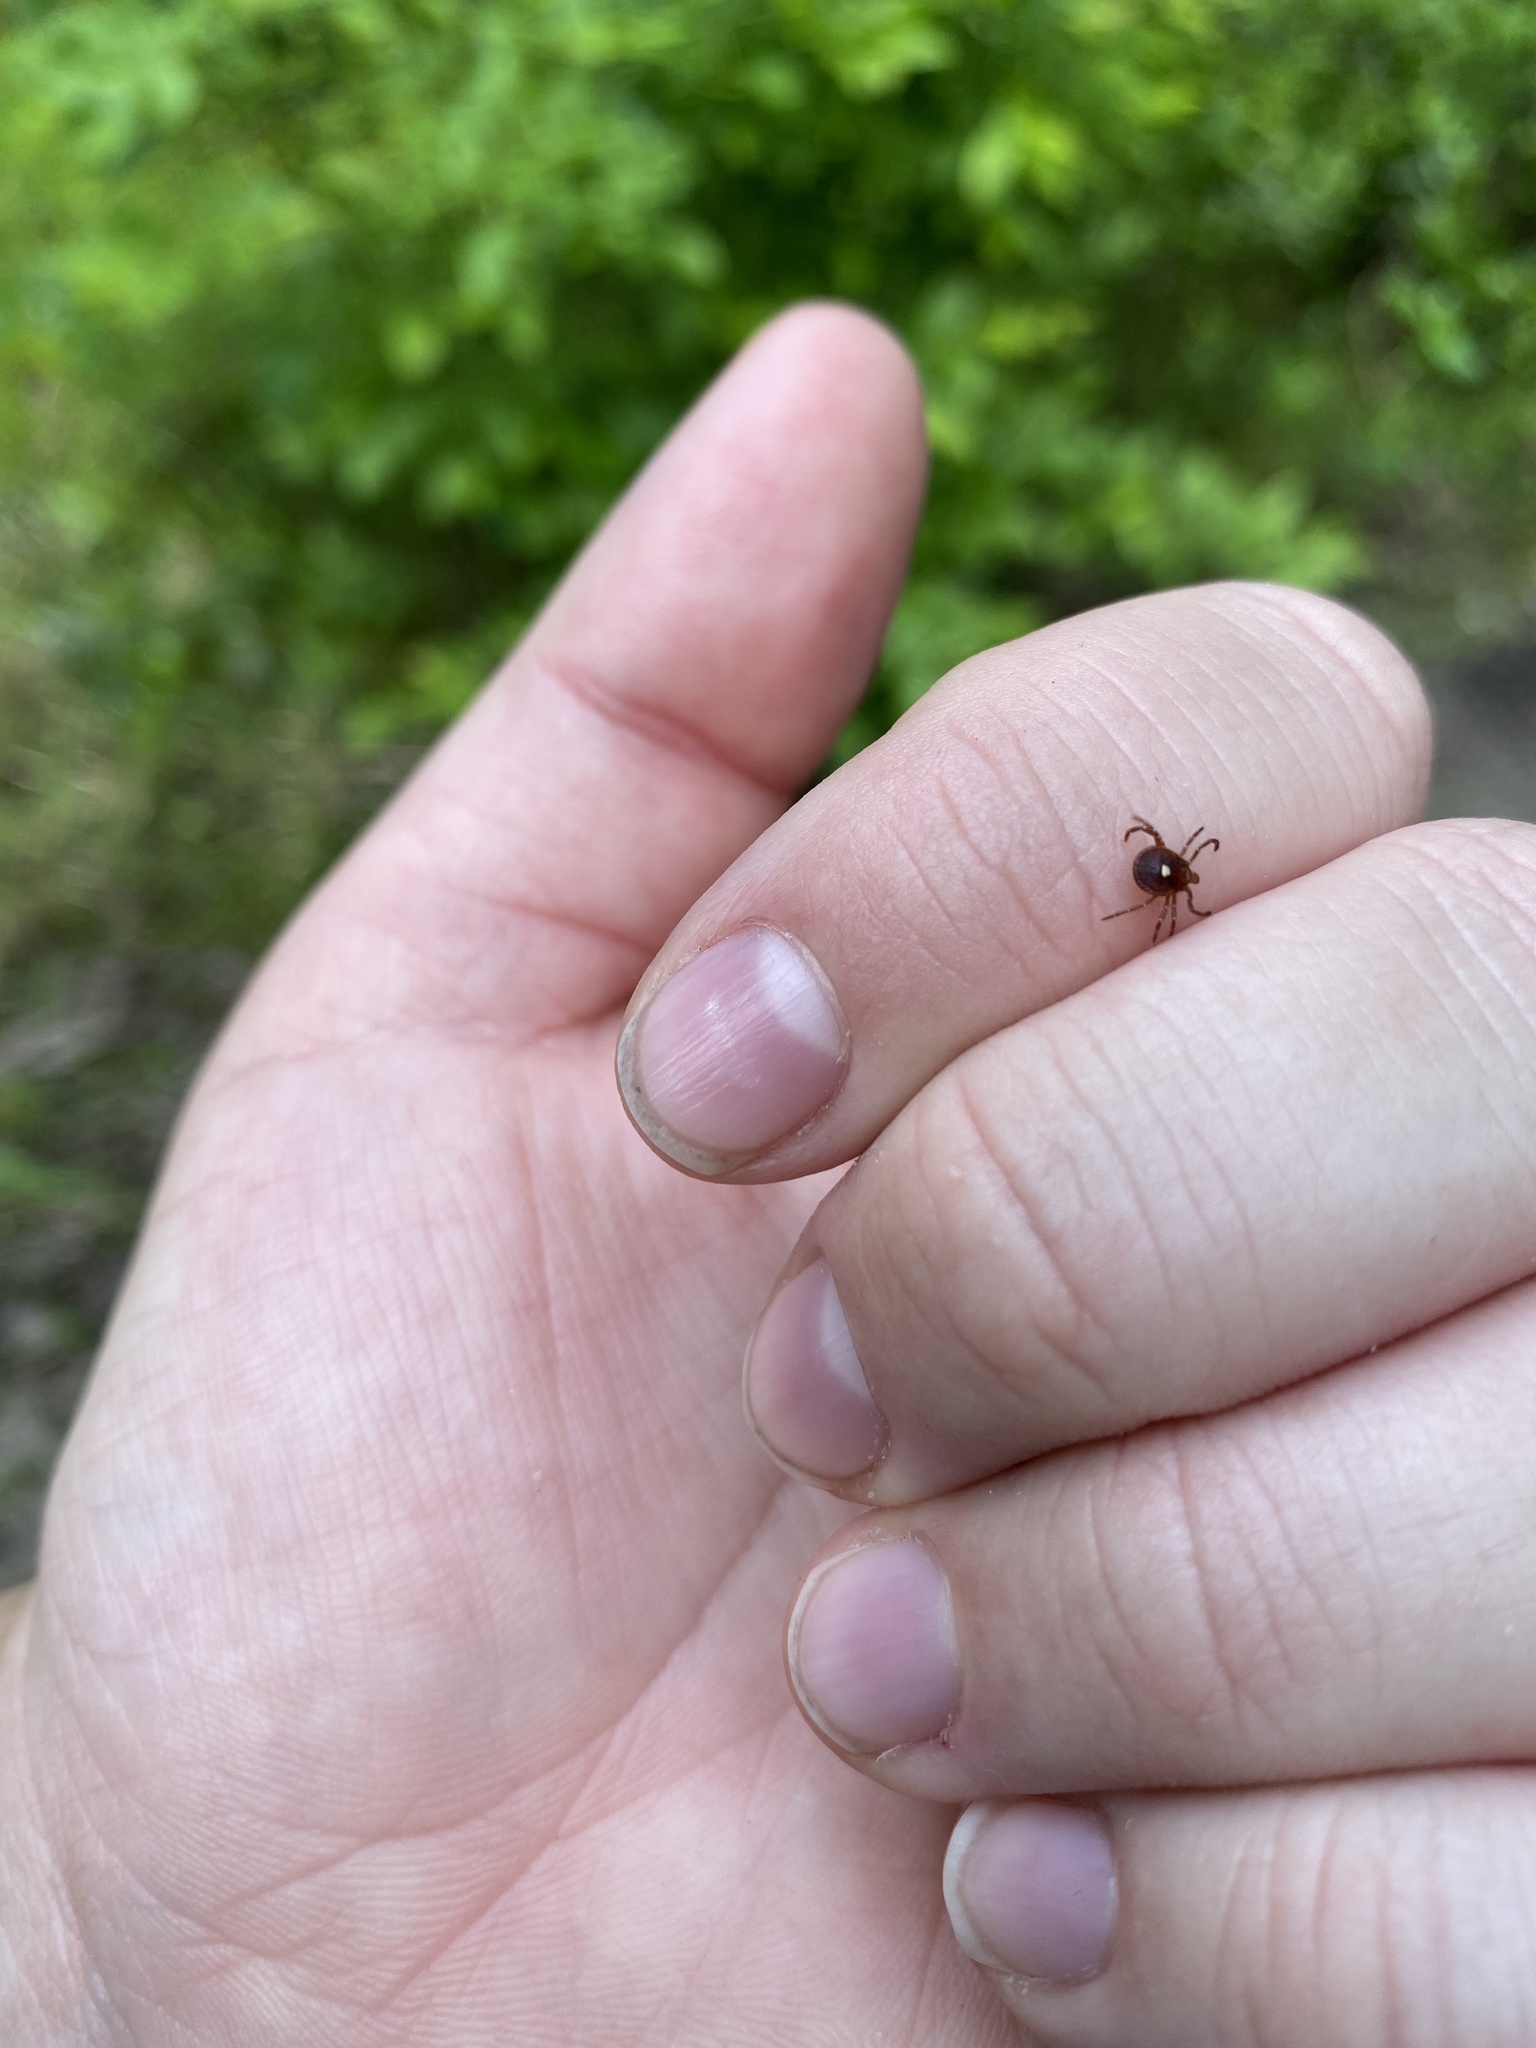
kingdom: Animalia
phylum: Arthropoda
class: Arachnida
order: Ixodida
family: Ixodidae
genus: Amblyomma
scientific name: Amblyomma americanum
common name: Lone star tick
